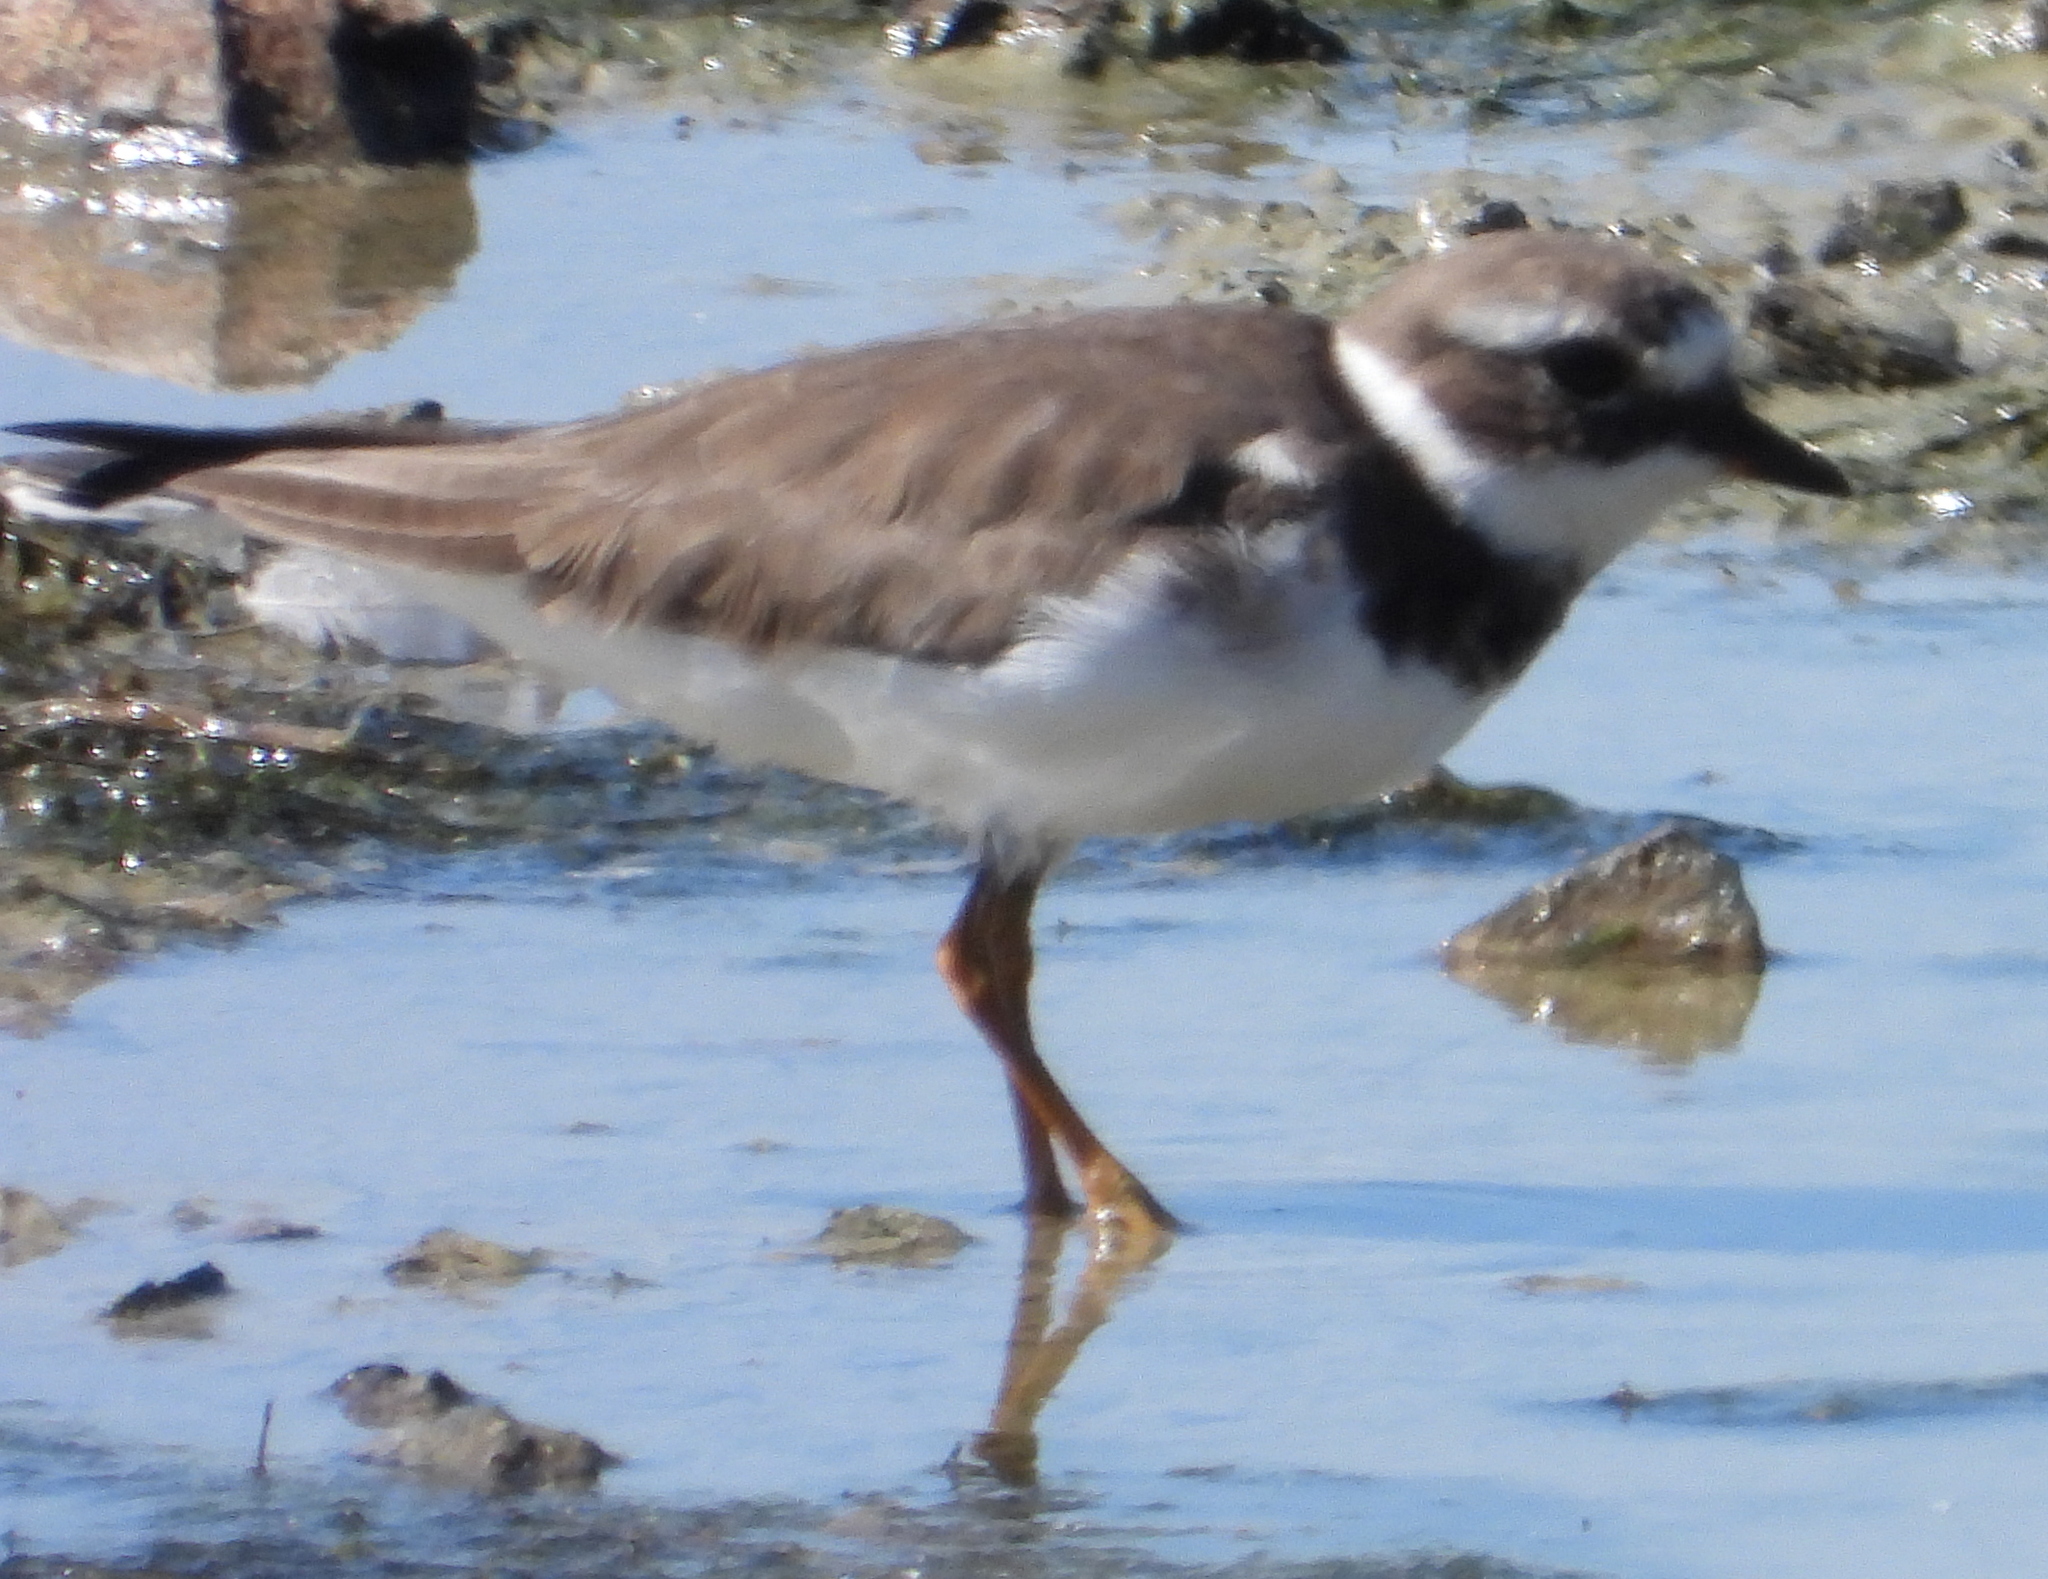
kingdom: Animalia
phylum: Chordata
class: Aves
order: Charadriiformes
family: Charadriidae
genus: Charadrius
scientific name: Charadrius hiaticula
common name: Common ringed plover
